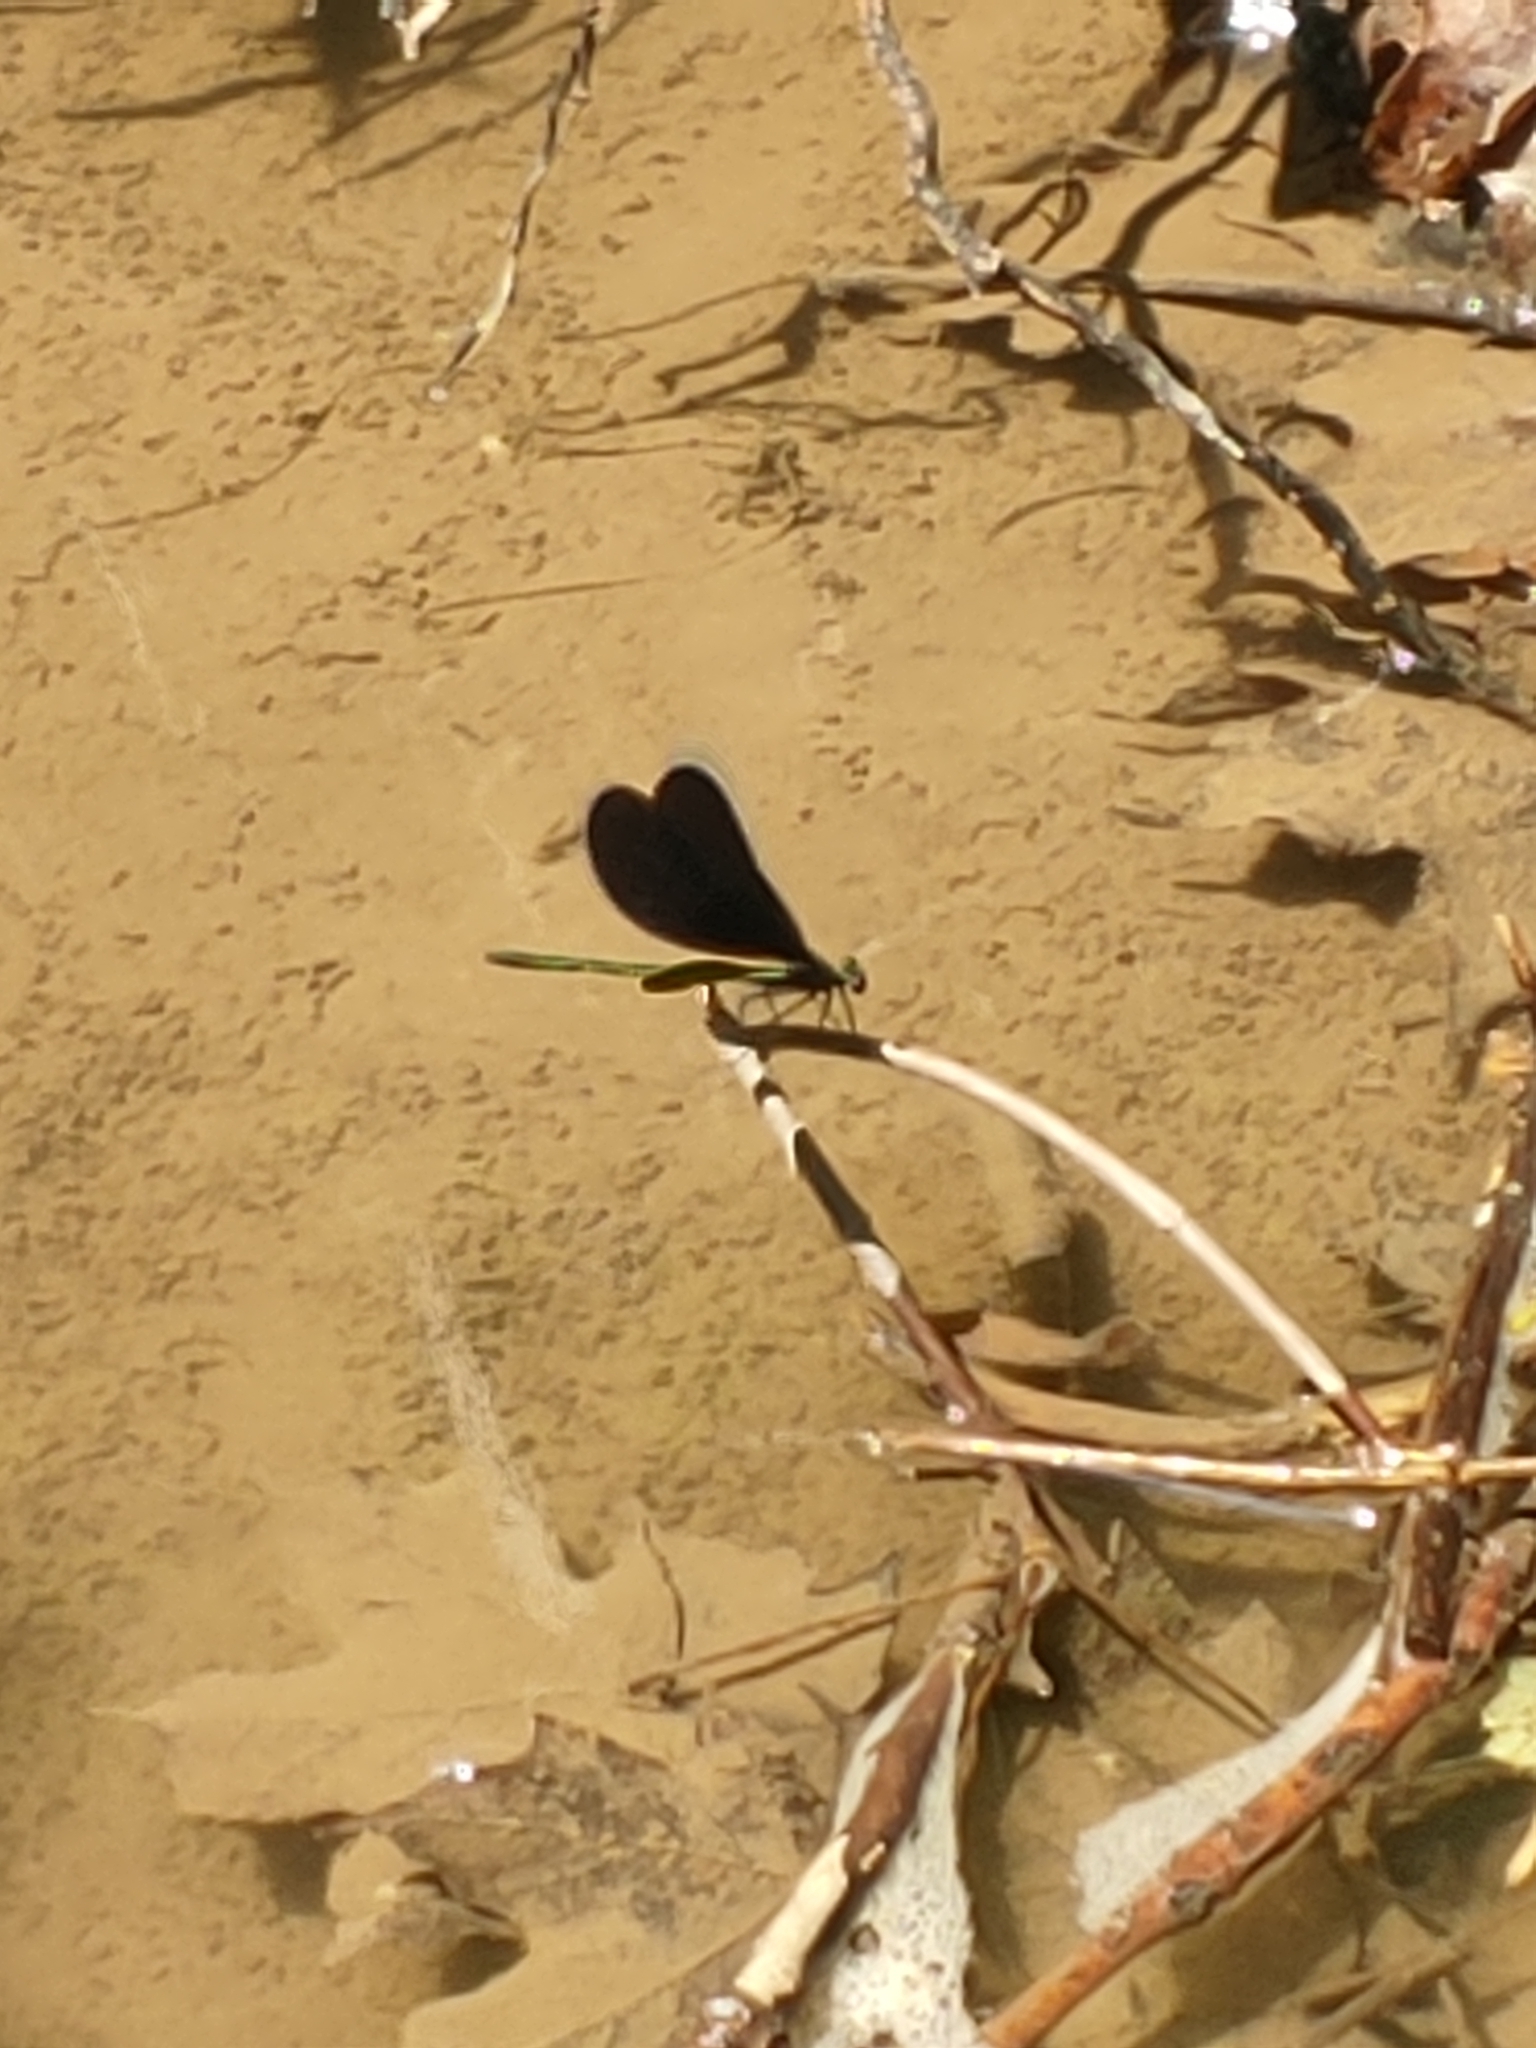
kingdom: Animalia
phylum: Arthropoda
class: Insecta
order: Odonata
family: Calopterygidae
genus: Calopteryx
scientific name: Calopteryx maculata
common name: Ebony jewelwing
